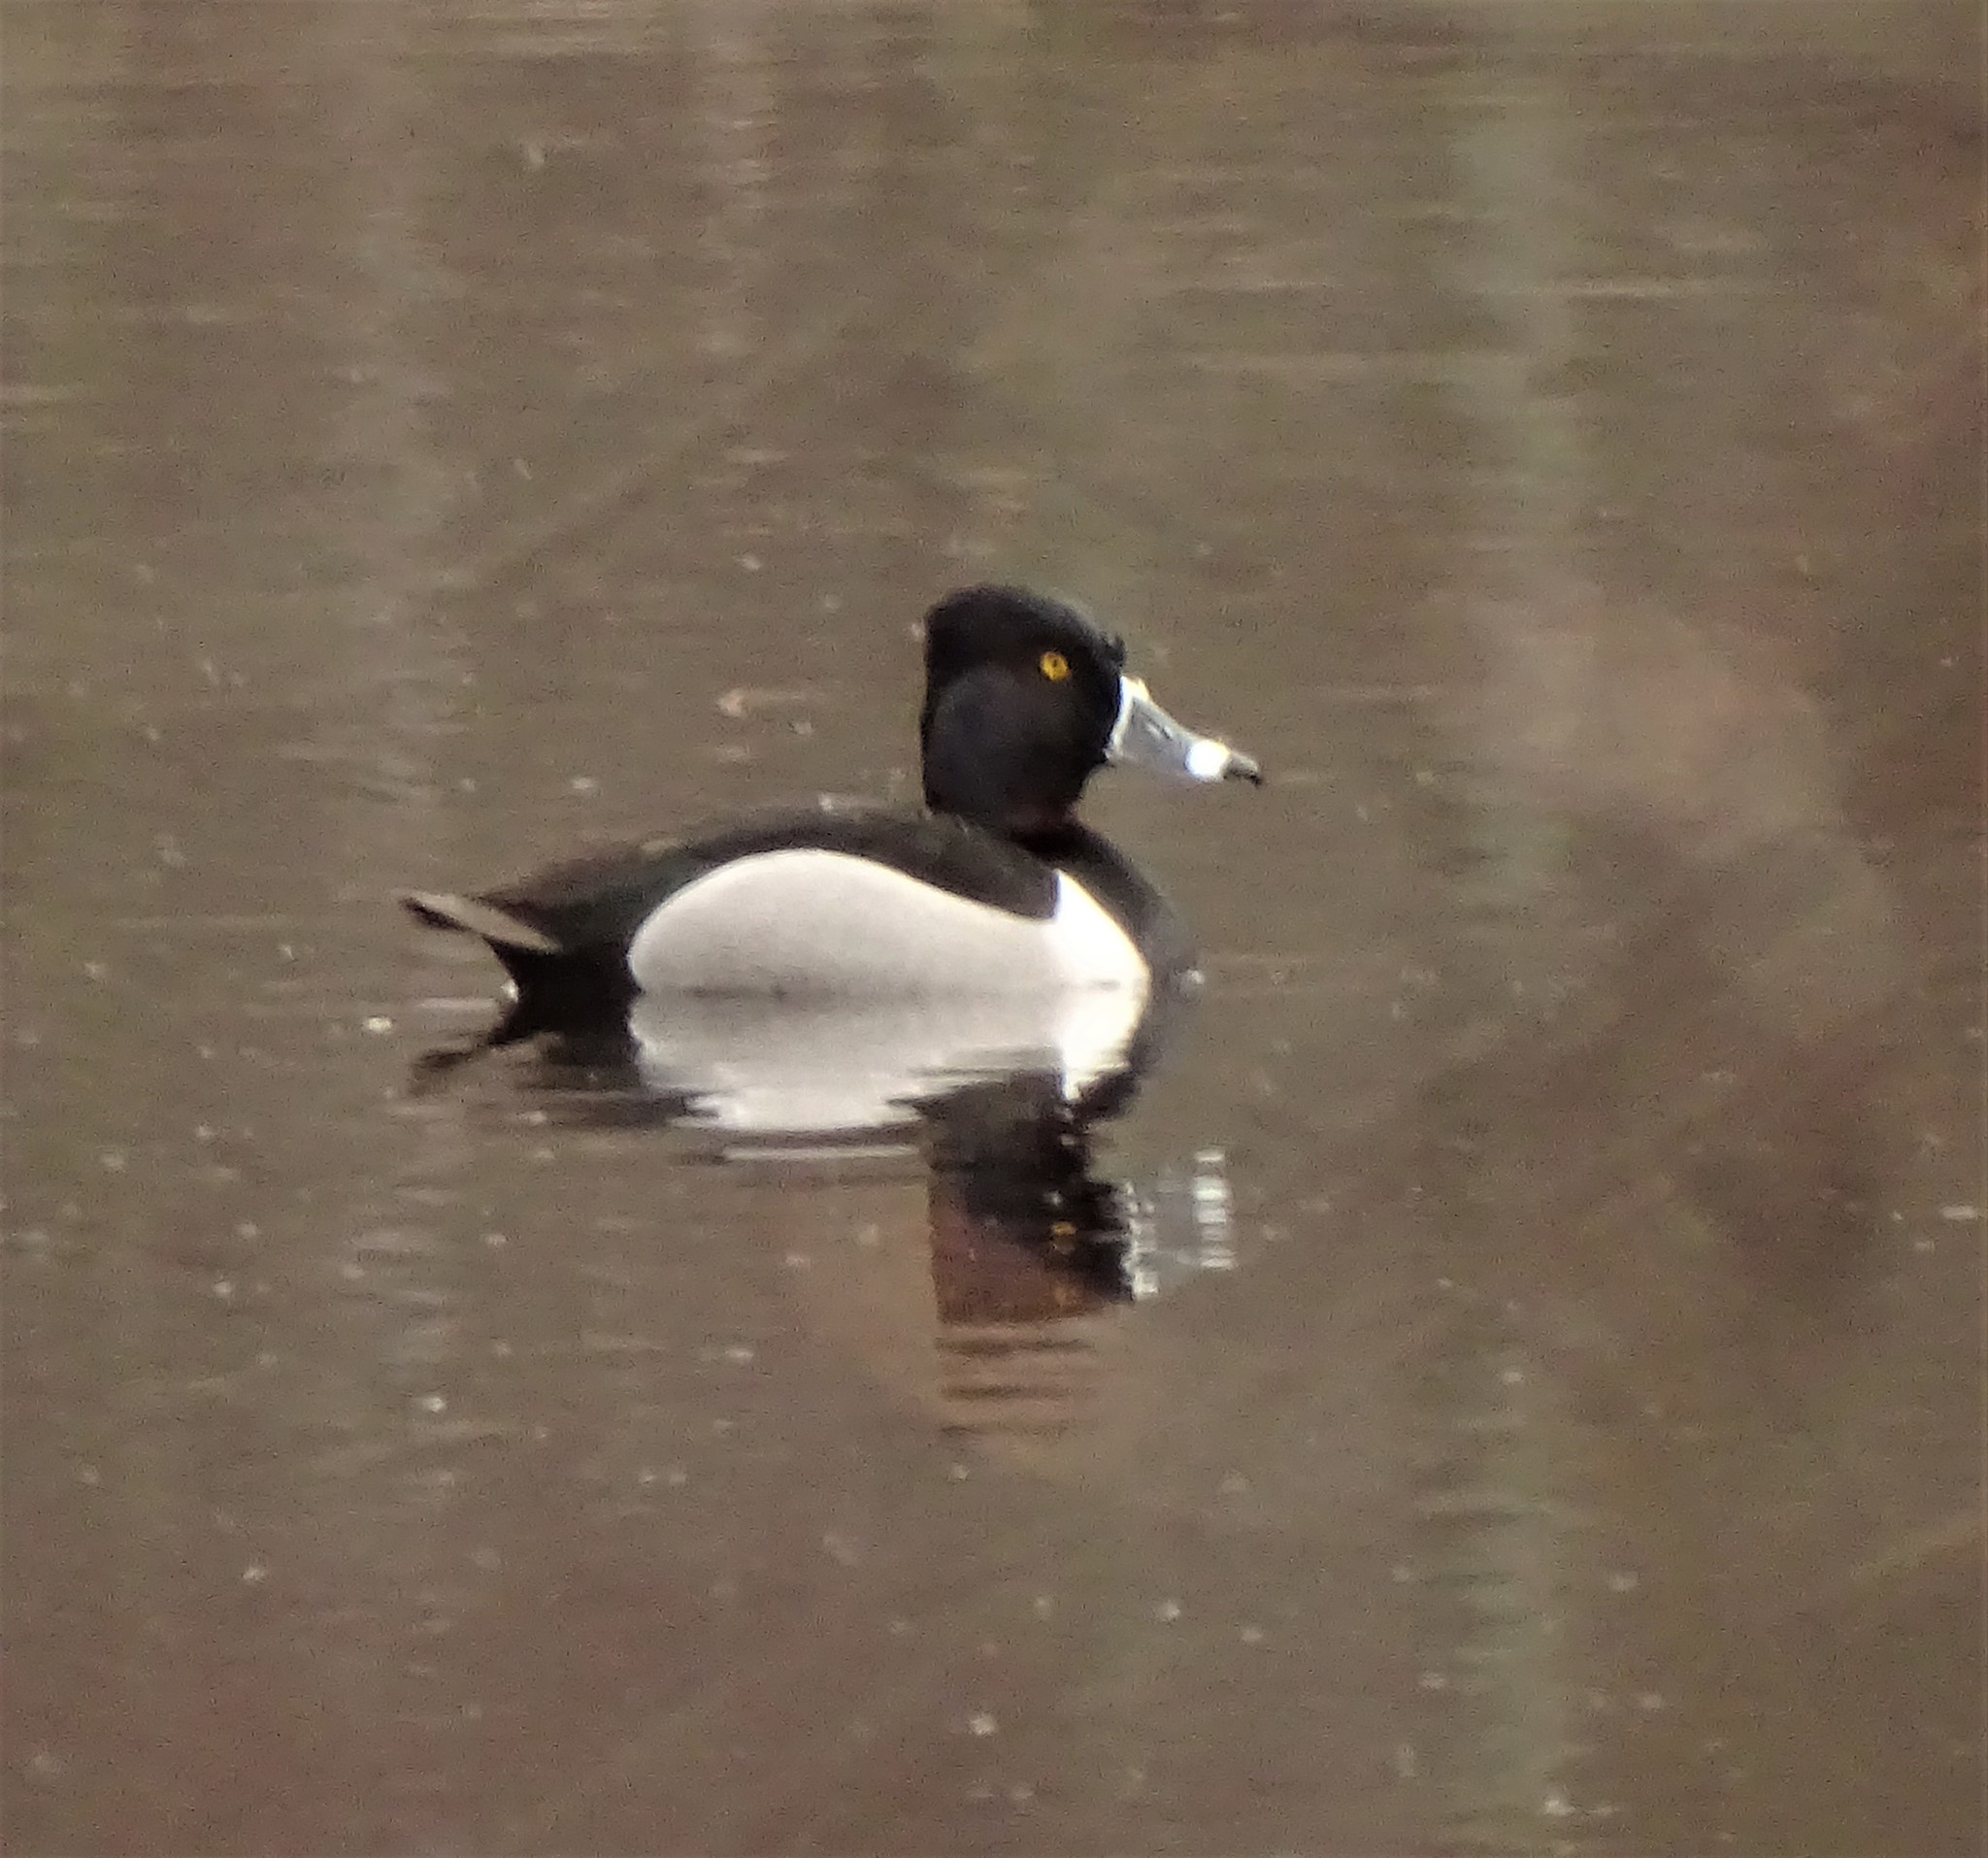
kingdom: Animalia
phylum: Chordata
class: Aves
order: Anseriformes
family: Anatidae
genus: Aythya
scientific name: Aythya collaris
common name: Ring-necked duck
